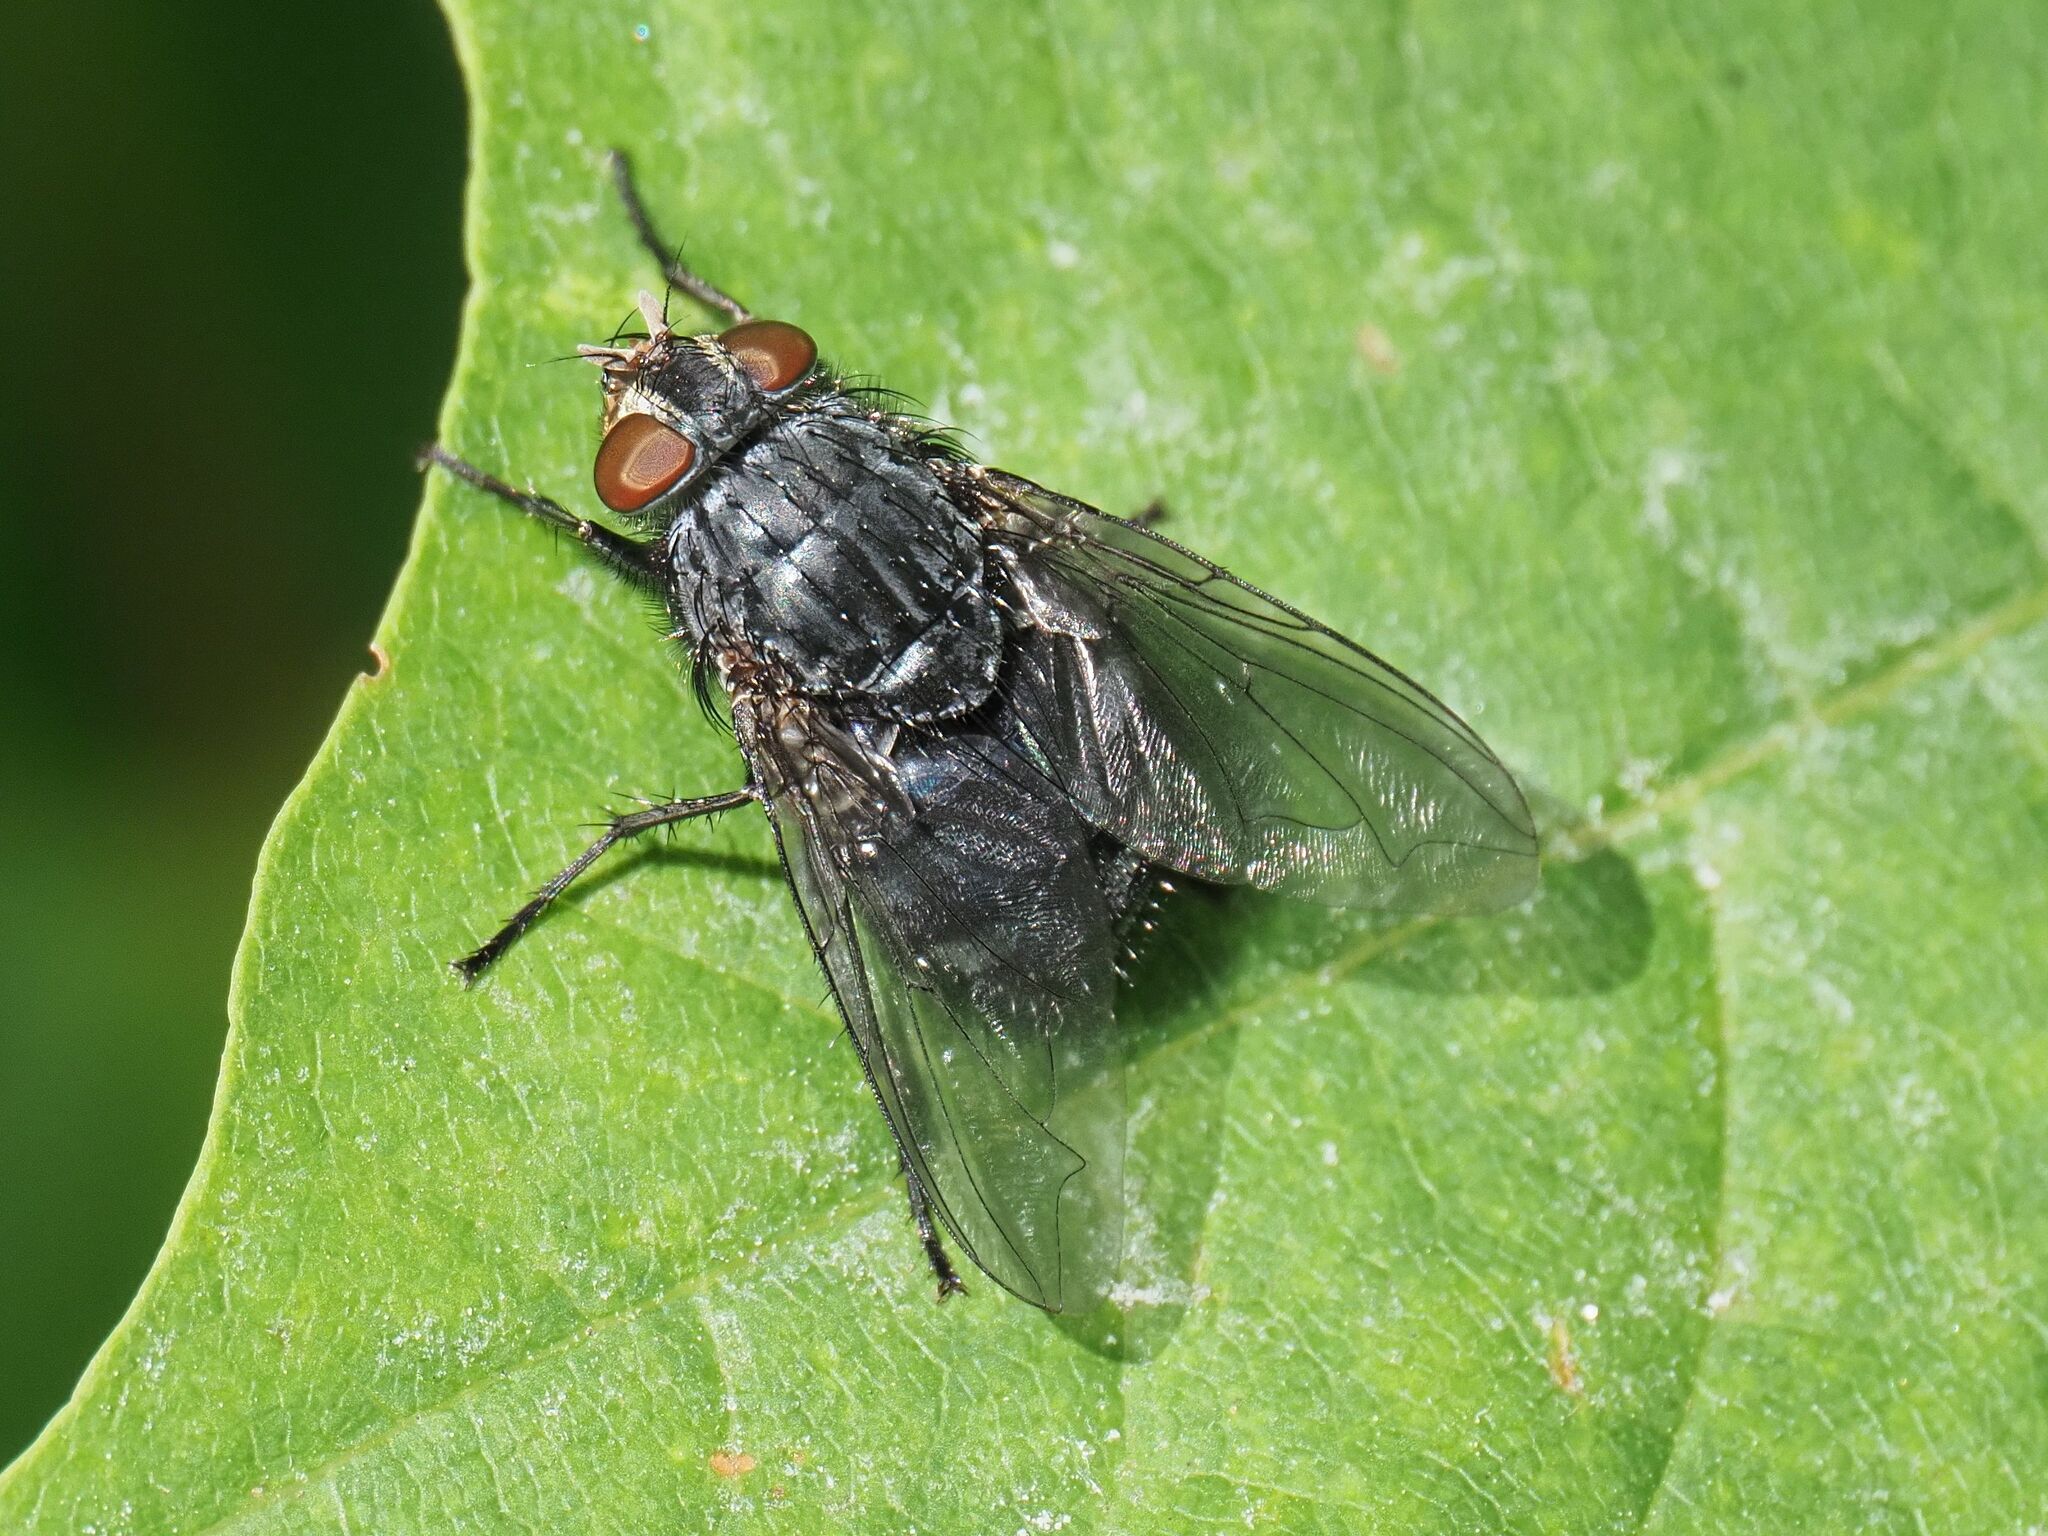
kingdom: Animalia
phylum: Arthropoda
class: Insecta
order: Diptera
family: Calliphoridae
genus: Calliphora
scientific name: Calliphora vicina
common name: Common blow flie
